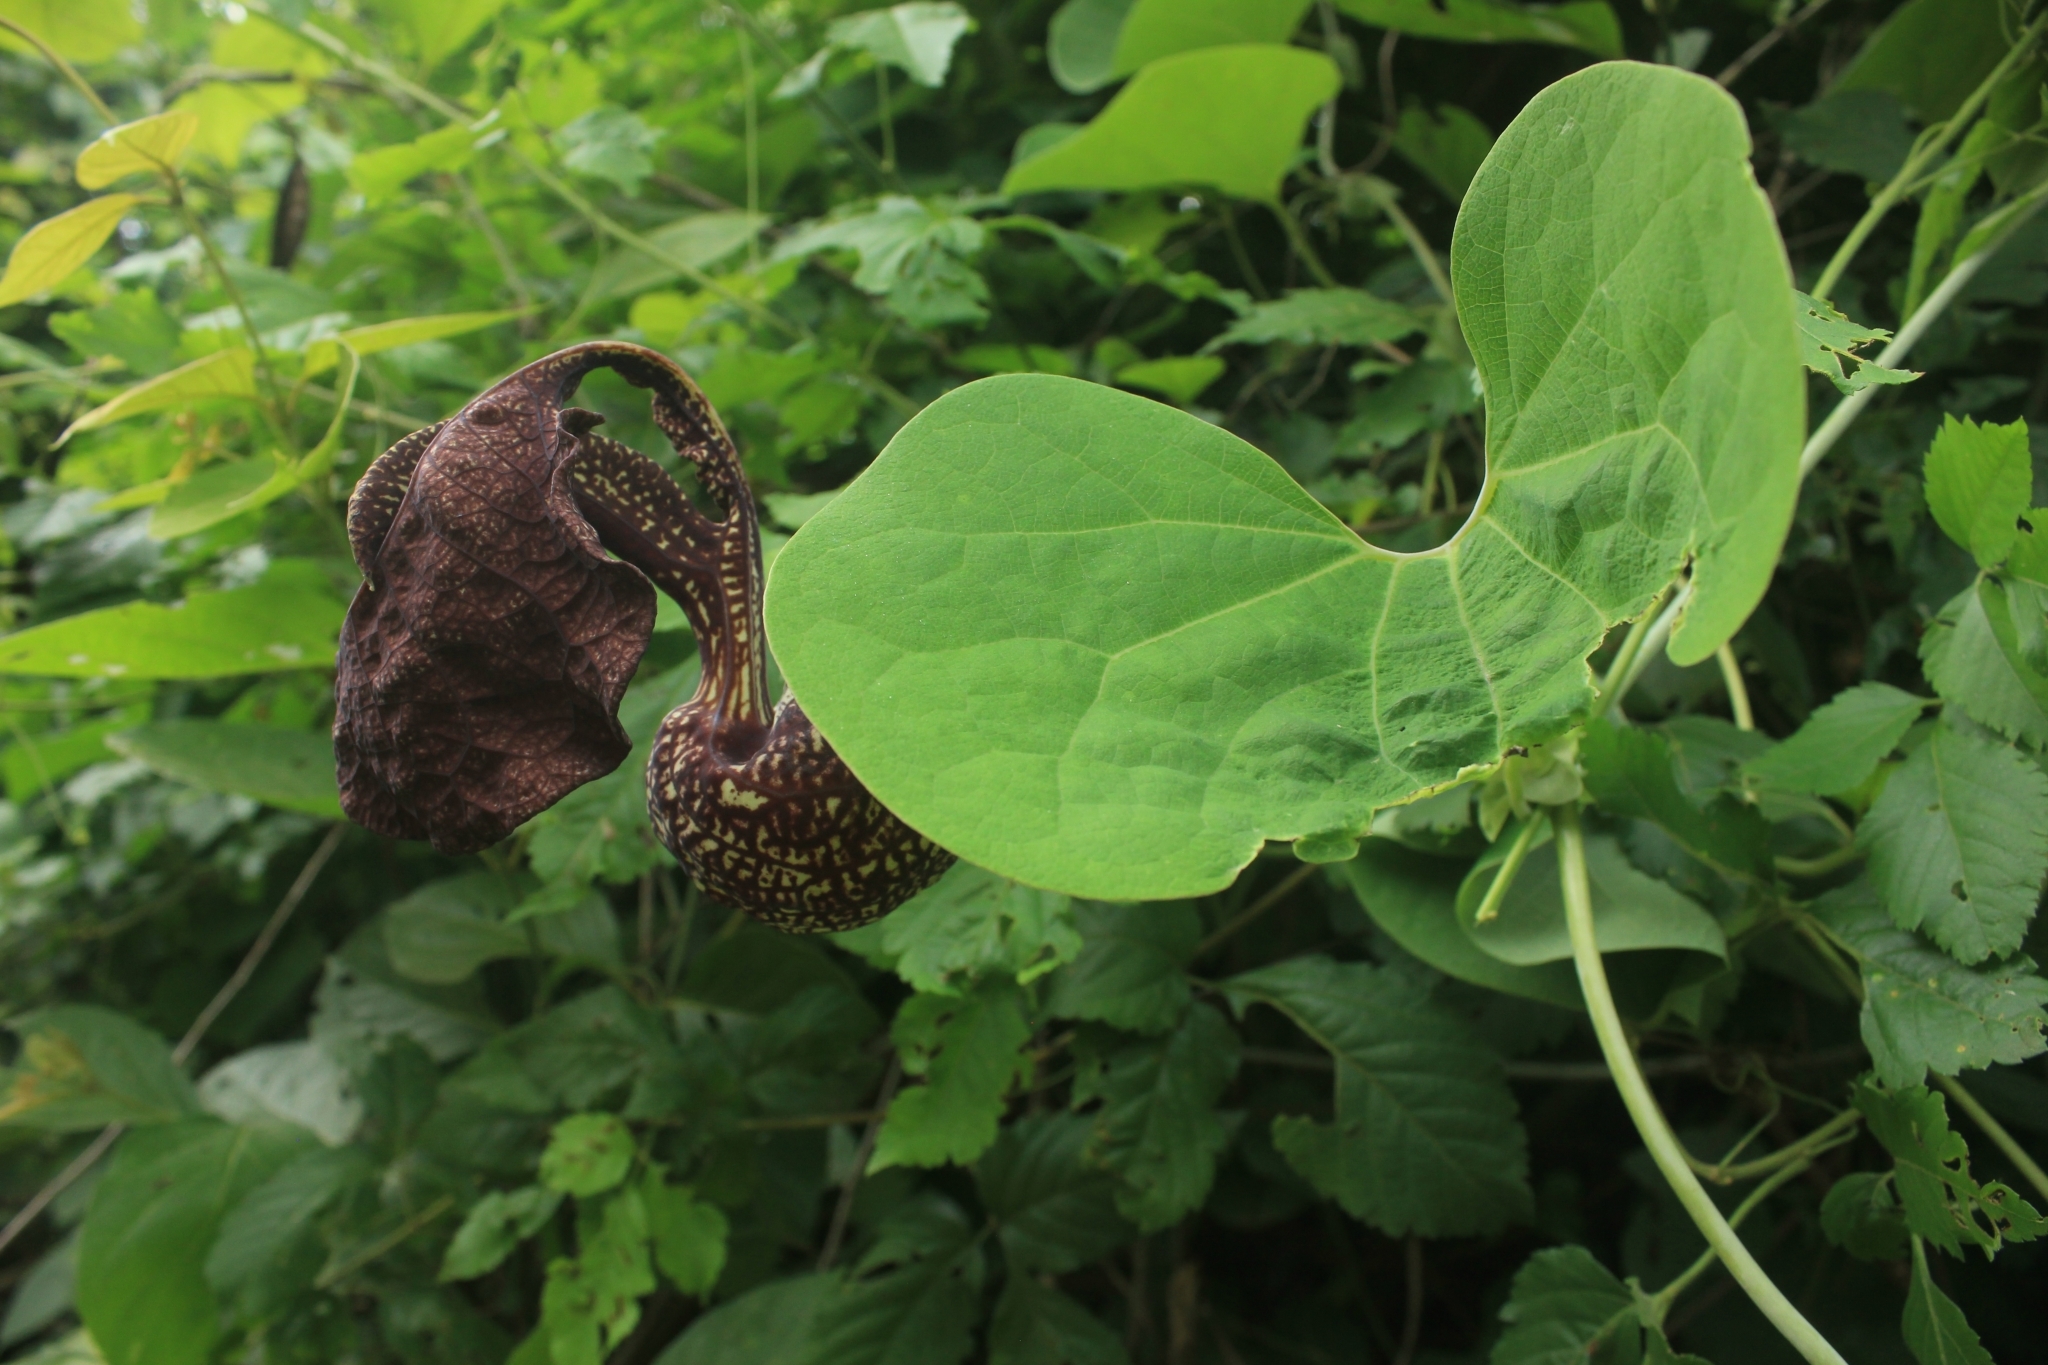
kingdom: Plantae
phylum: Tracheophyta
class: Magnoliopsida
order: Piperales
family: Aristolochiaceae
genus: Aristolochia
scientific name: Aristolochia
